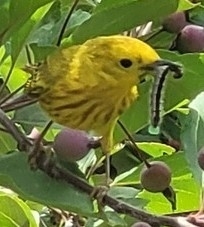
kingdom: Animalia
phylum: Chordata
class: Aves
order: Passeriformes
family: Parulidae
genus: Setophaga
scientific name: Setophaga petechia
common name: Yellow warbler
